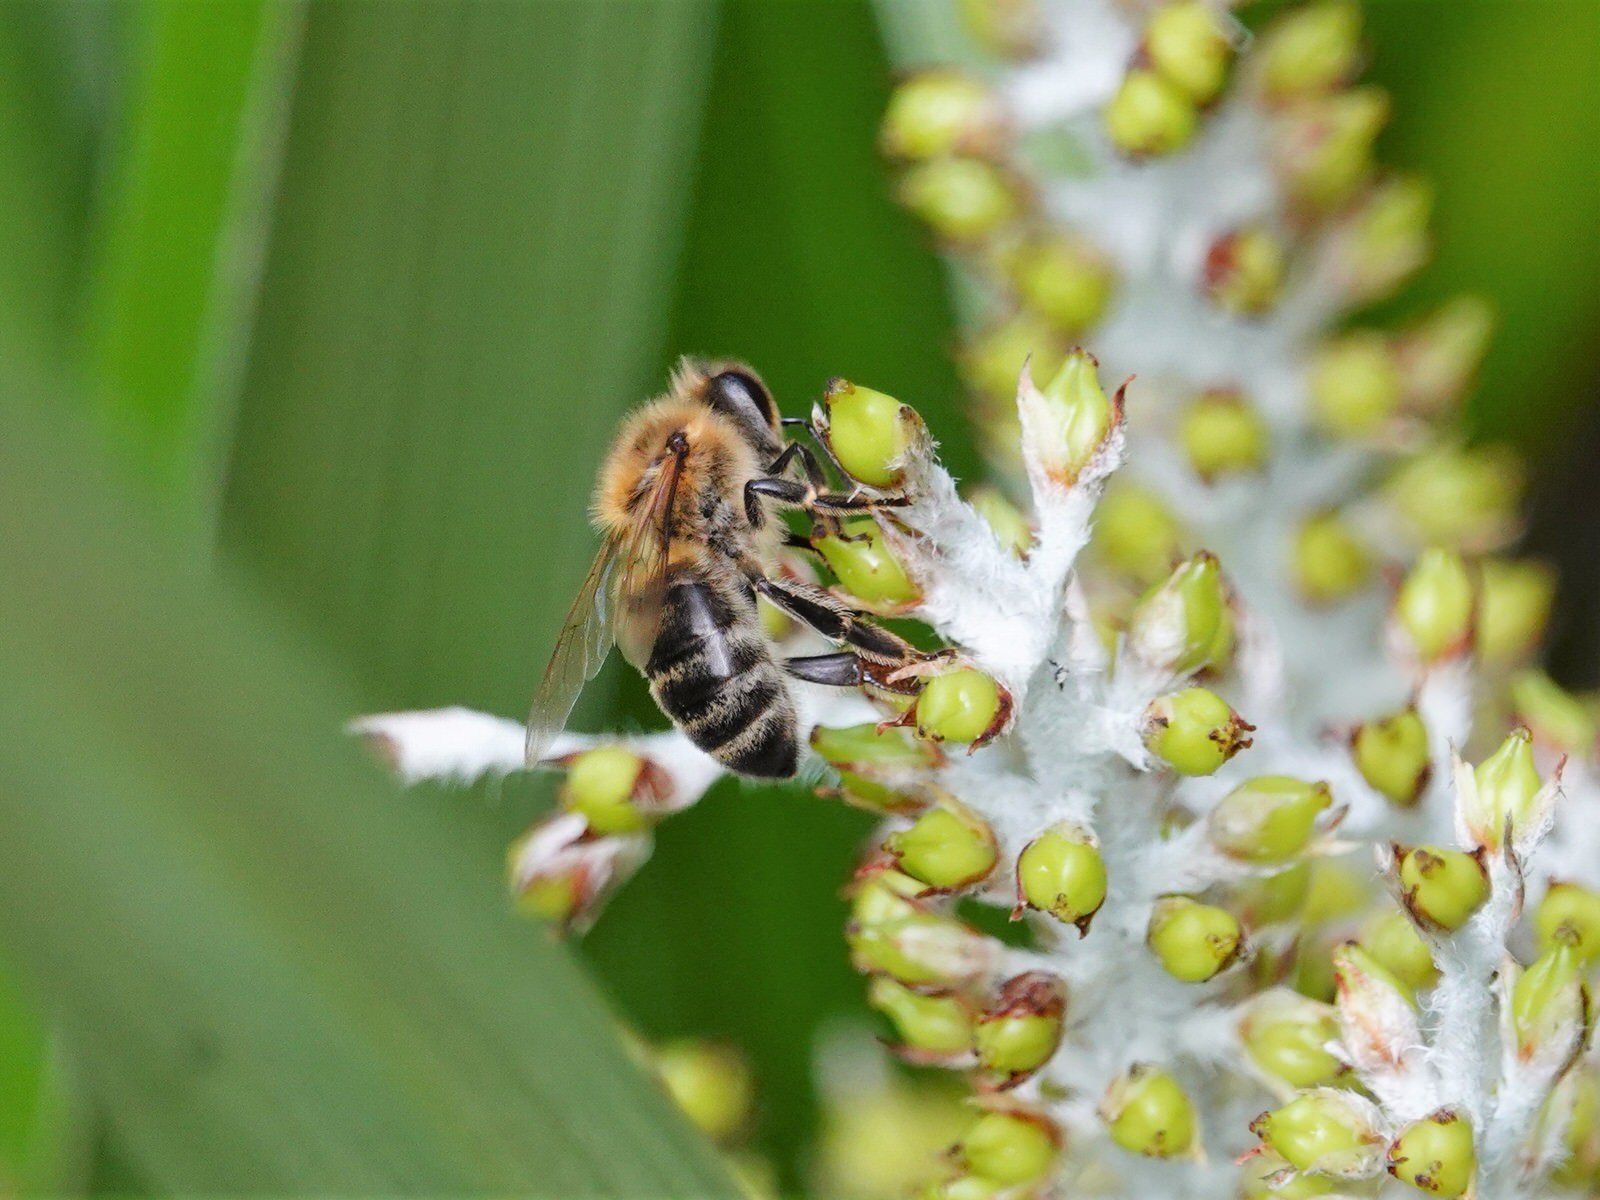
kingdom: Animalia
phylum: Arthropoda
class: Insecta
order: Hymenoptera
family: Apidae
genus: Apis
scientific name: Apis mellifera
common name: Honey bee
